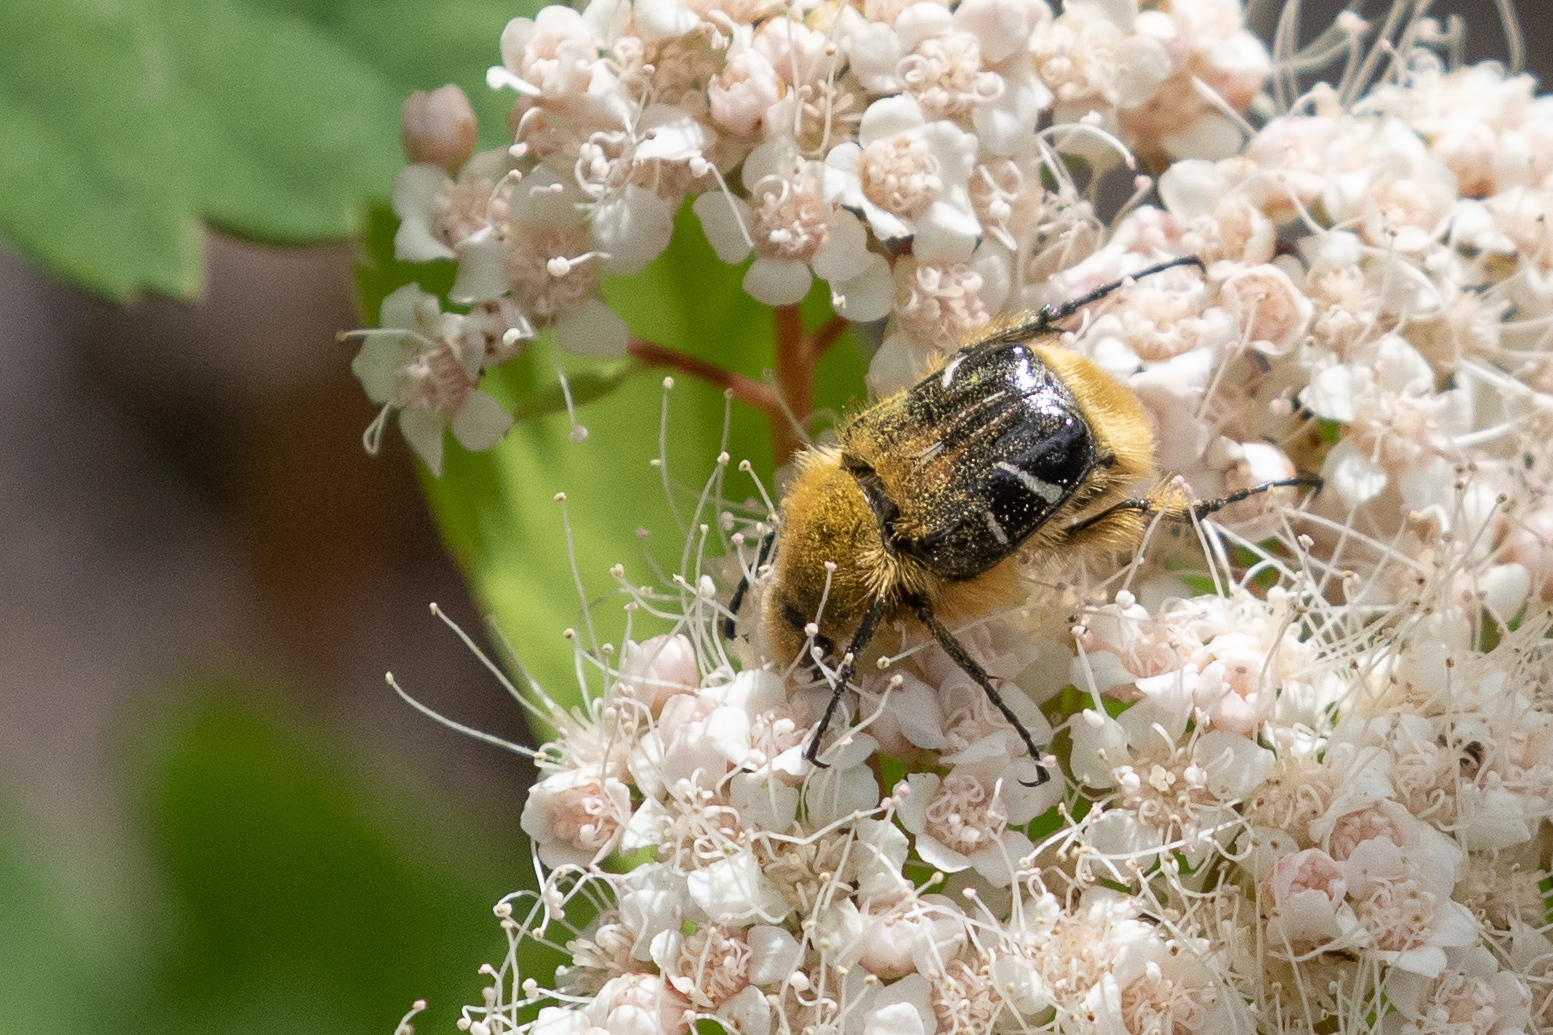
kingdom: Animalia
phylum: Arthropoda
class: Insecta
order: Coleoptera
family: Scarabaeidae
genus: Trichiotinus
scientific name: Trichiotinus assimilis
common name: Bee-mimic beetle
